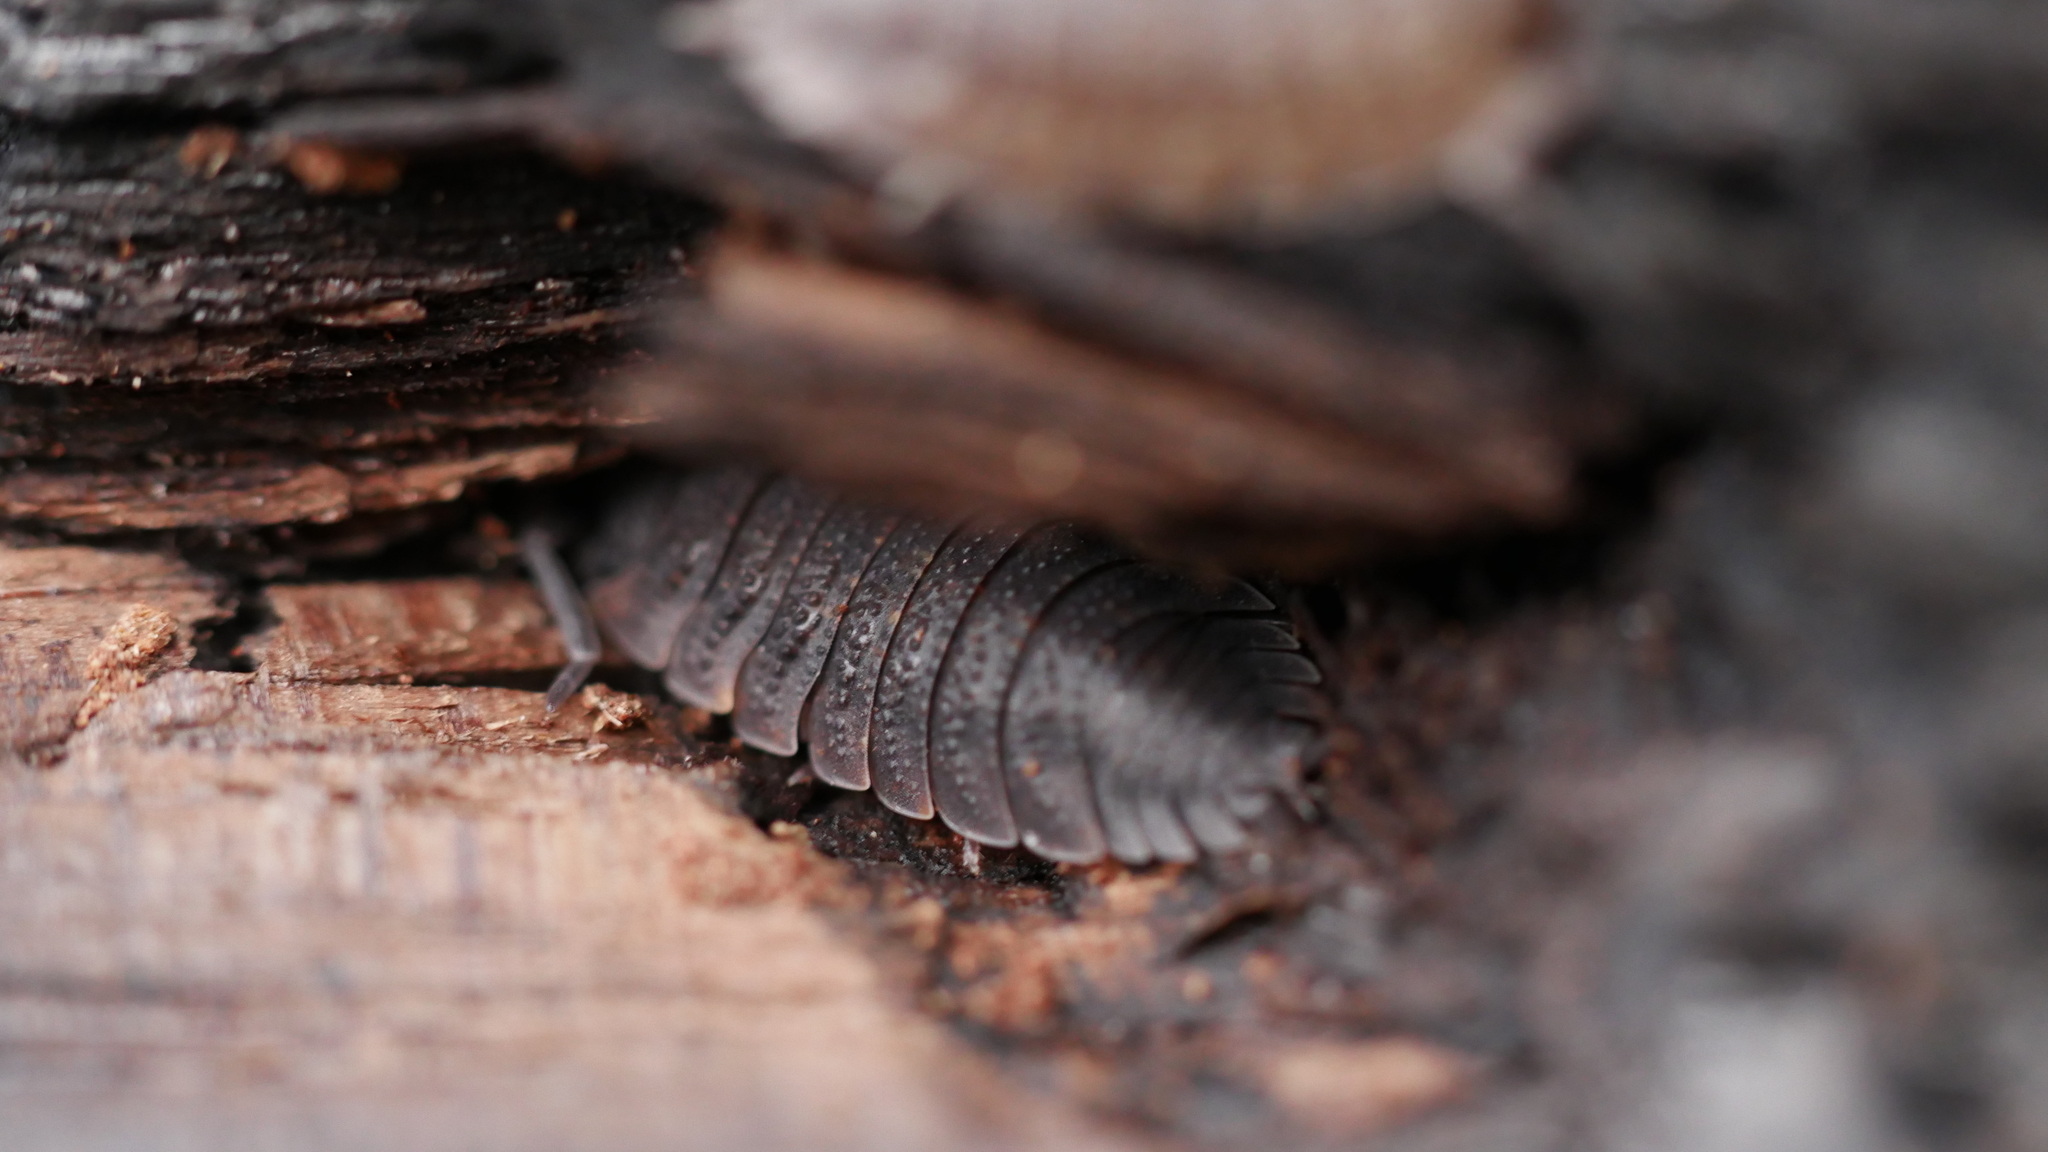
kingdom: Animalia
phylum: Arthropoda
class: Malacostraca
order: Isopoda
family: Porcellionidae
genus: Porcellio
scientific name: Porcellio scaber
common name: Common rough woodlouse
